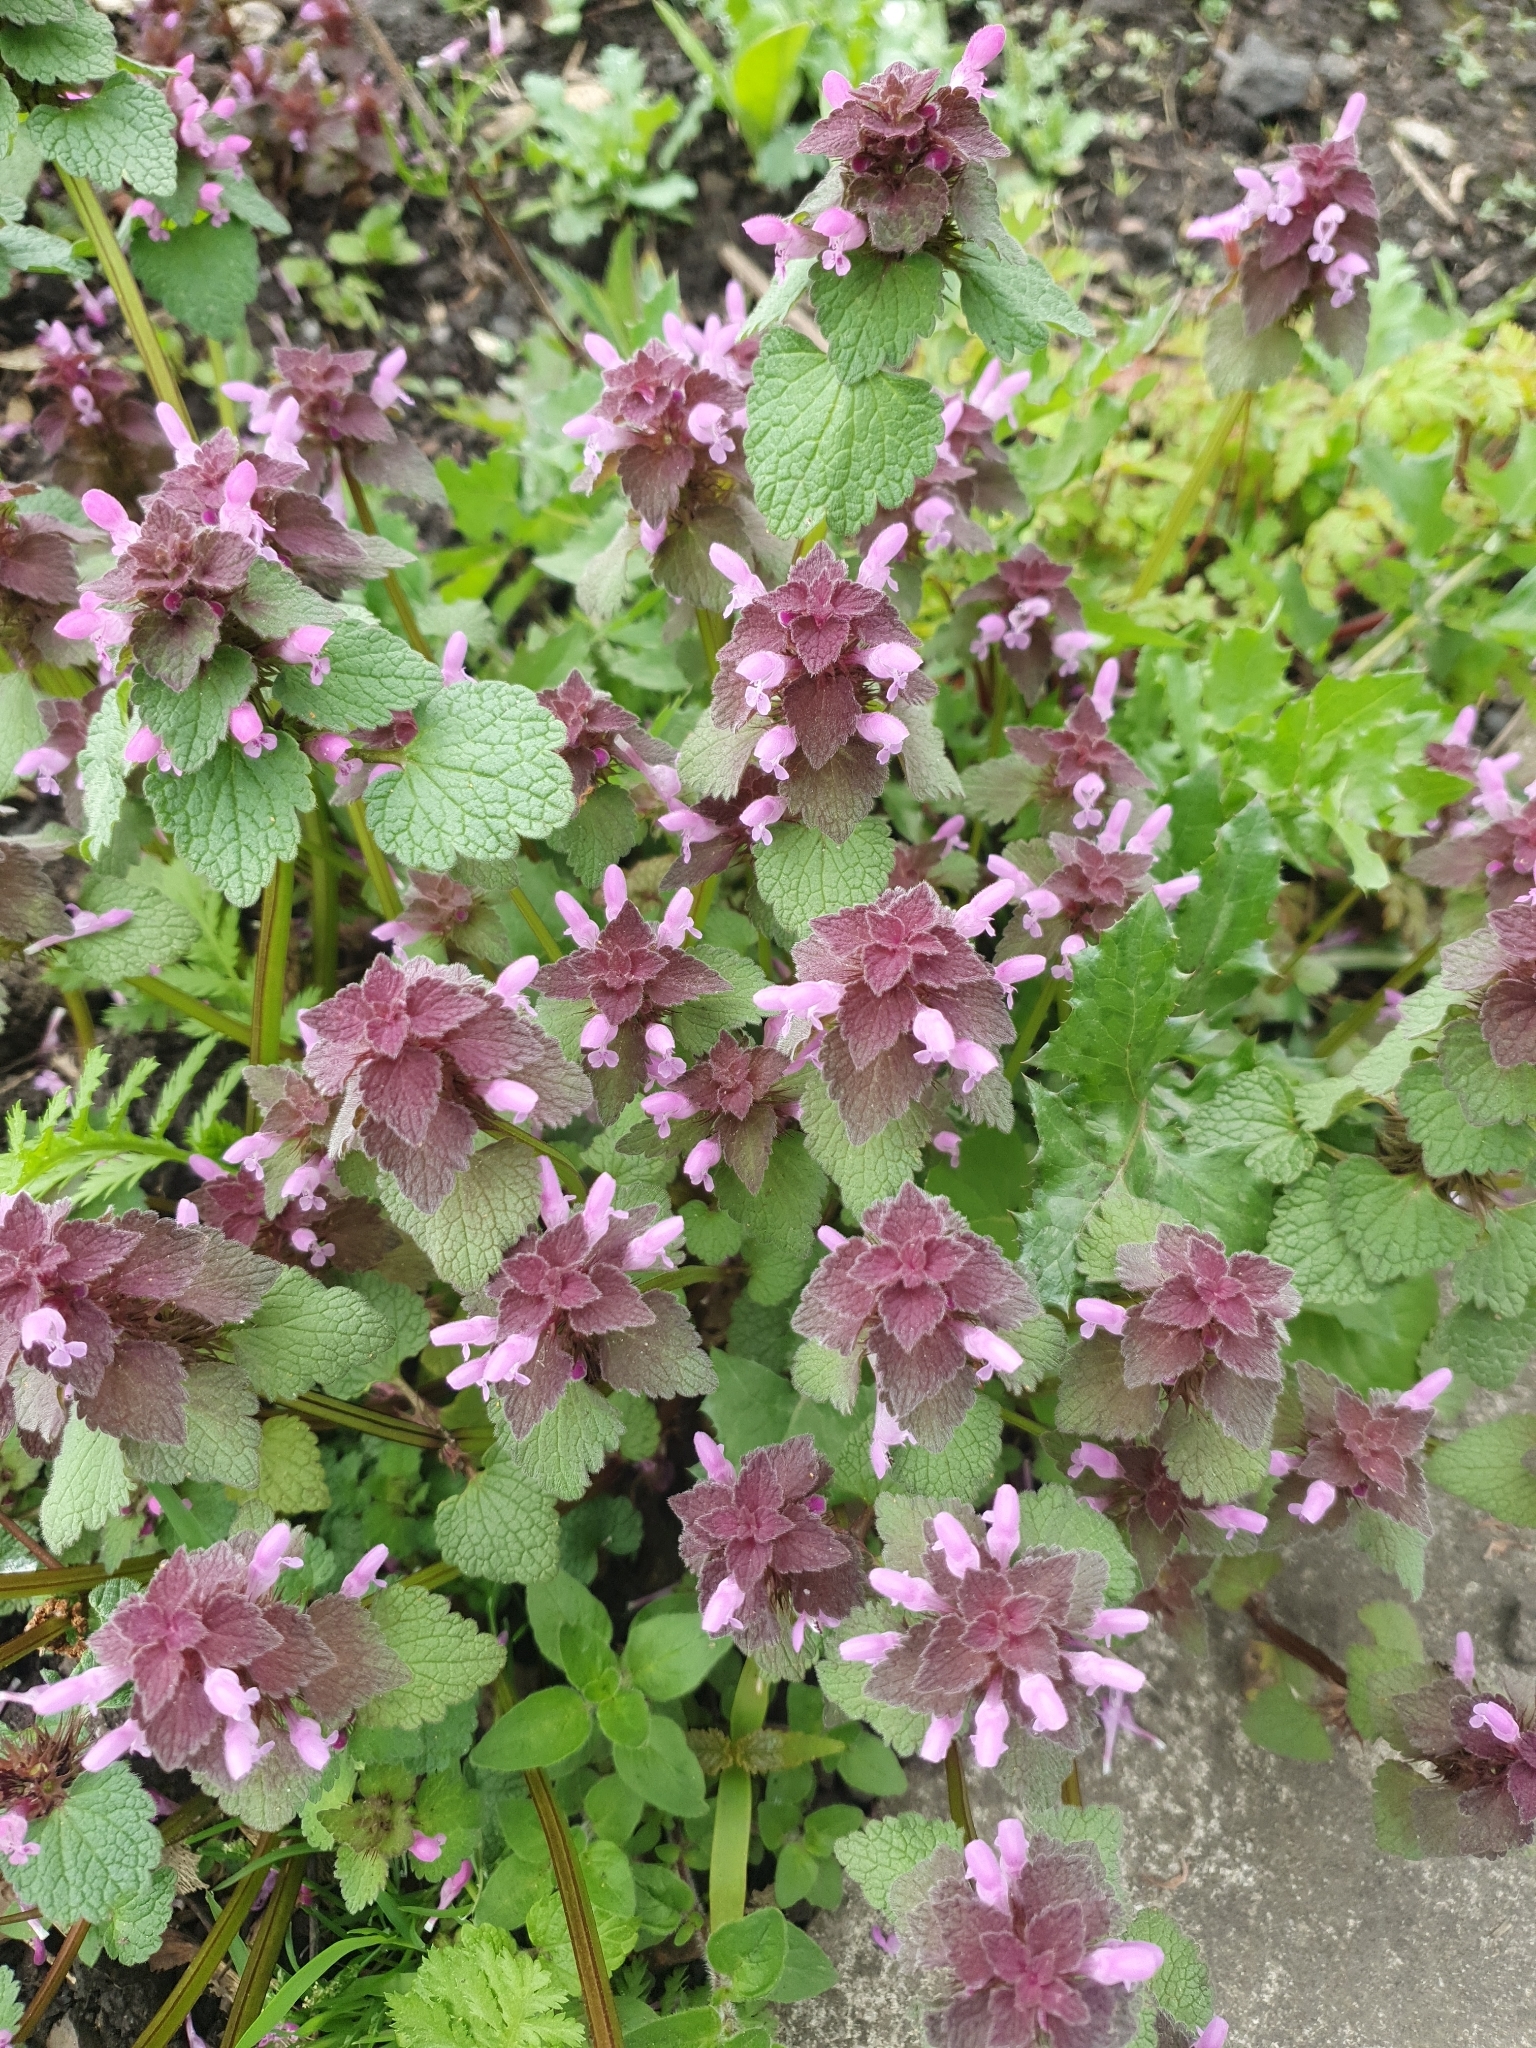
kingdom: Plantae
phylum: Tracheophyta
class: Magnoliopsida
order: Lamiales
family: Lamiaceae
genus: Lamium
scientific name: Lamium purpureum
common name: Red dead-nettle
